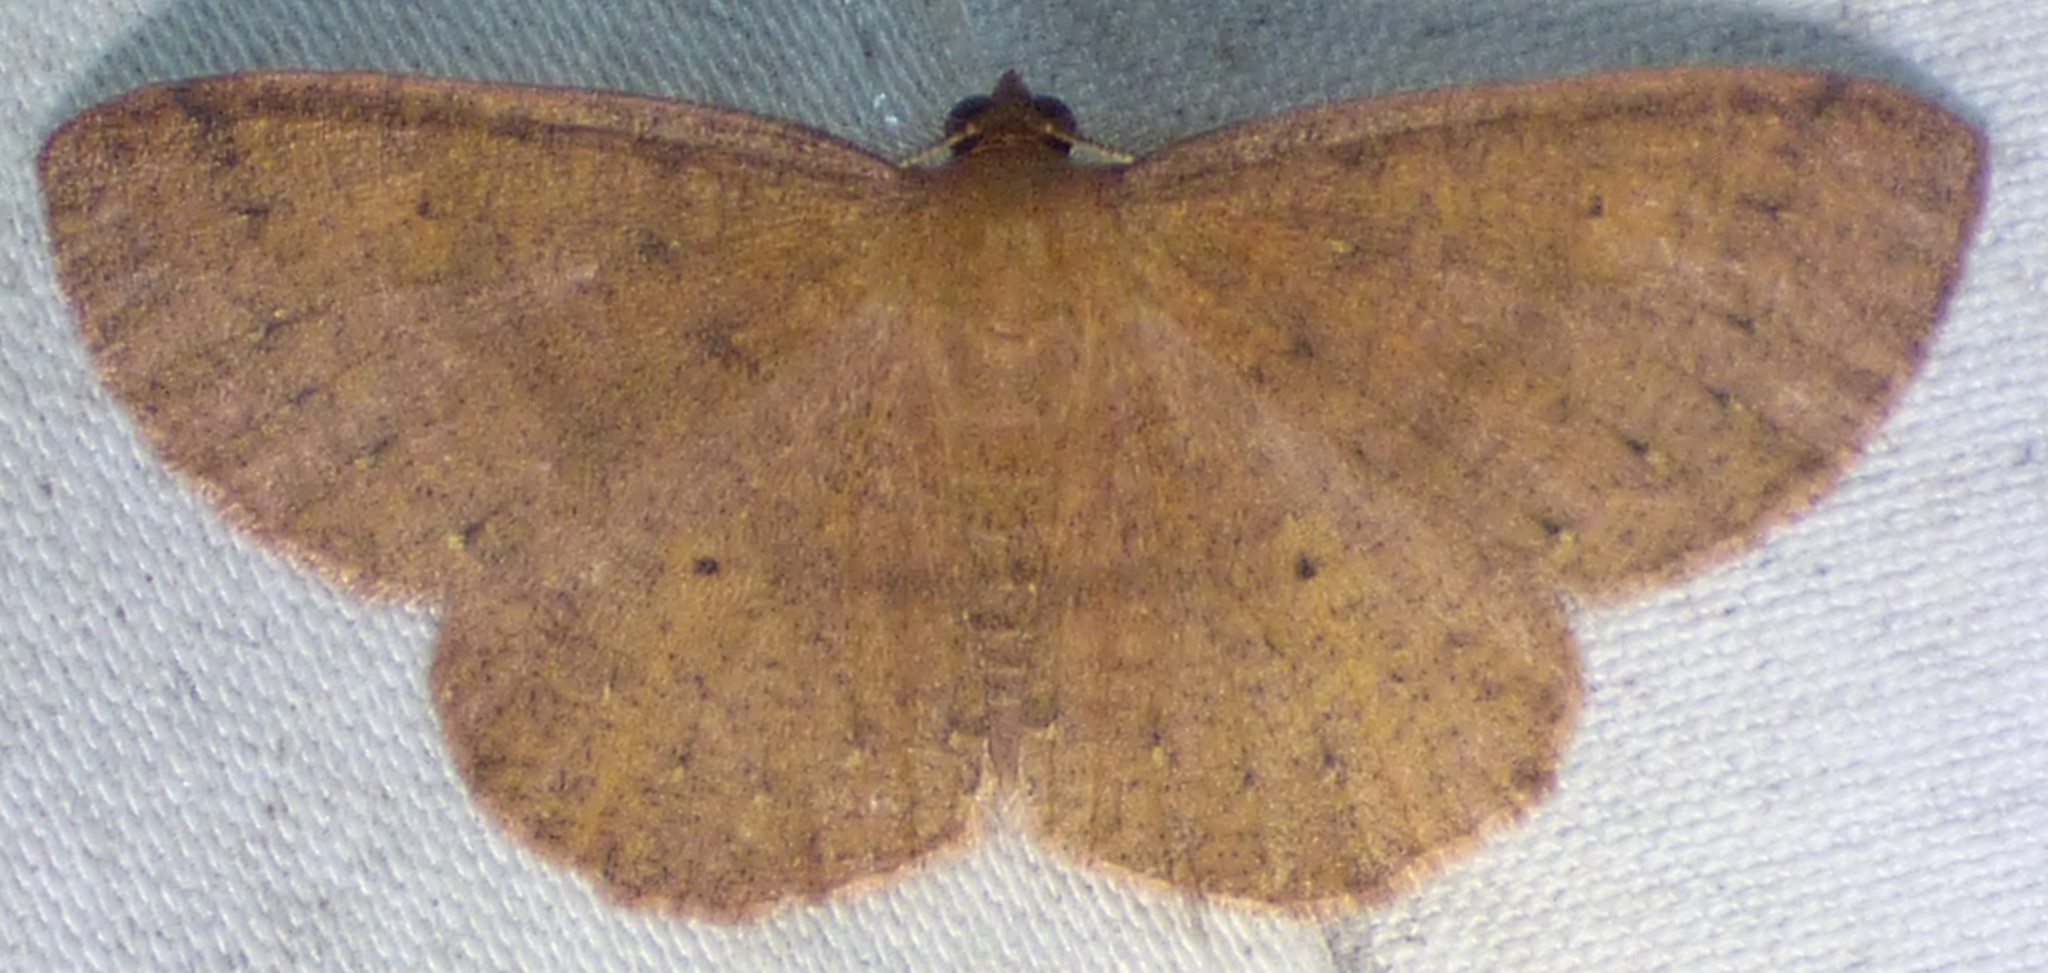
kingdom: Animalia
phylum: Arthropoda
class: Insecta
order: Lepidoptera
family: Geometridae
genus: Ilexia
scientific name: Ilexia intractata
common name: Black-dotted ruddy moth
